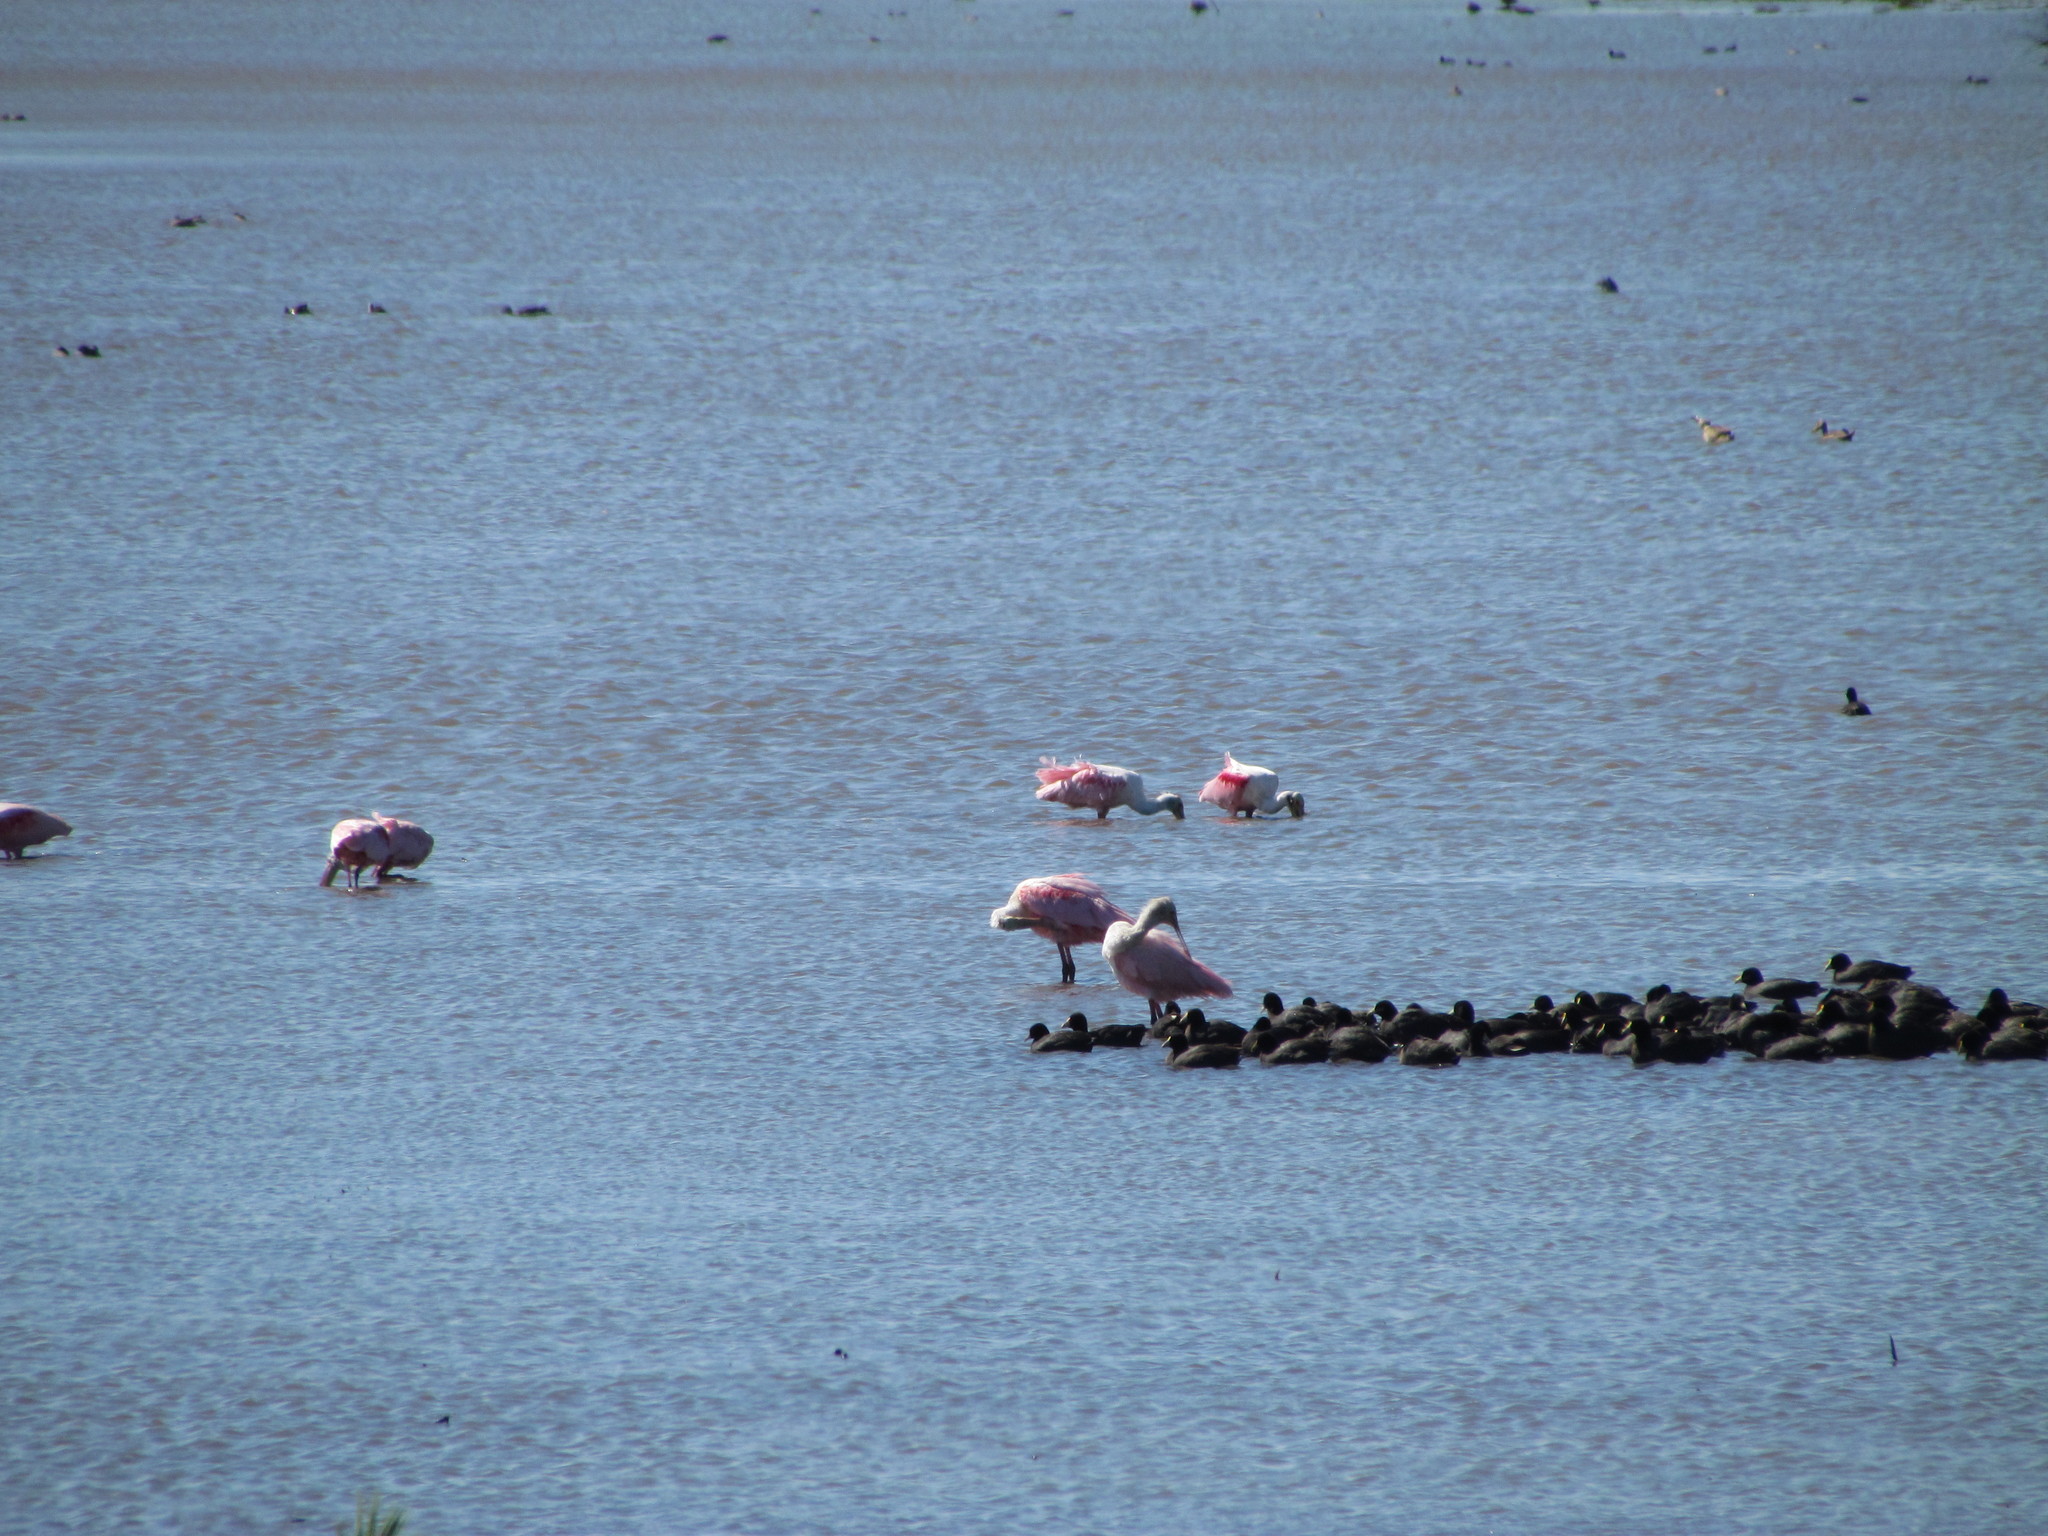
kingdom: Animalia
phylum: Chordata
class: Aves
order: Pelecaniformes
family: Threskiornithidae
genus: Platalea
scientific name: Platalea ajaja
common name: Roseate spoonbill
